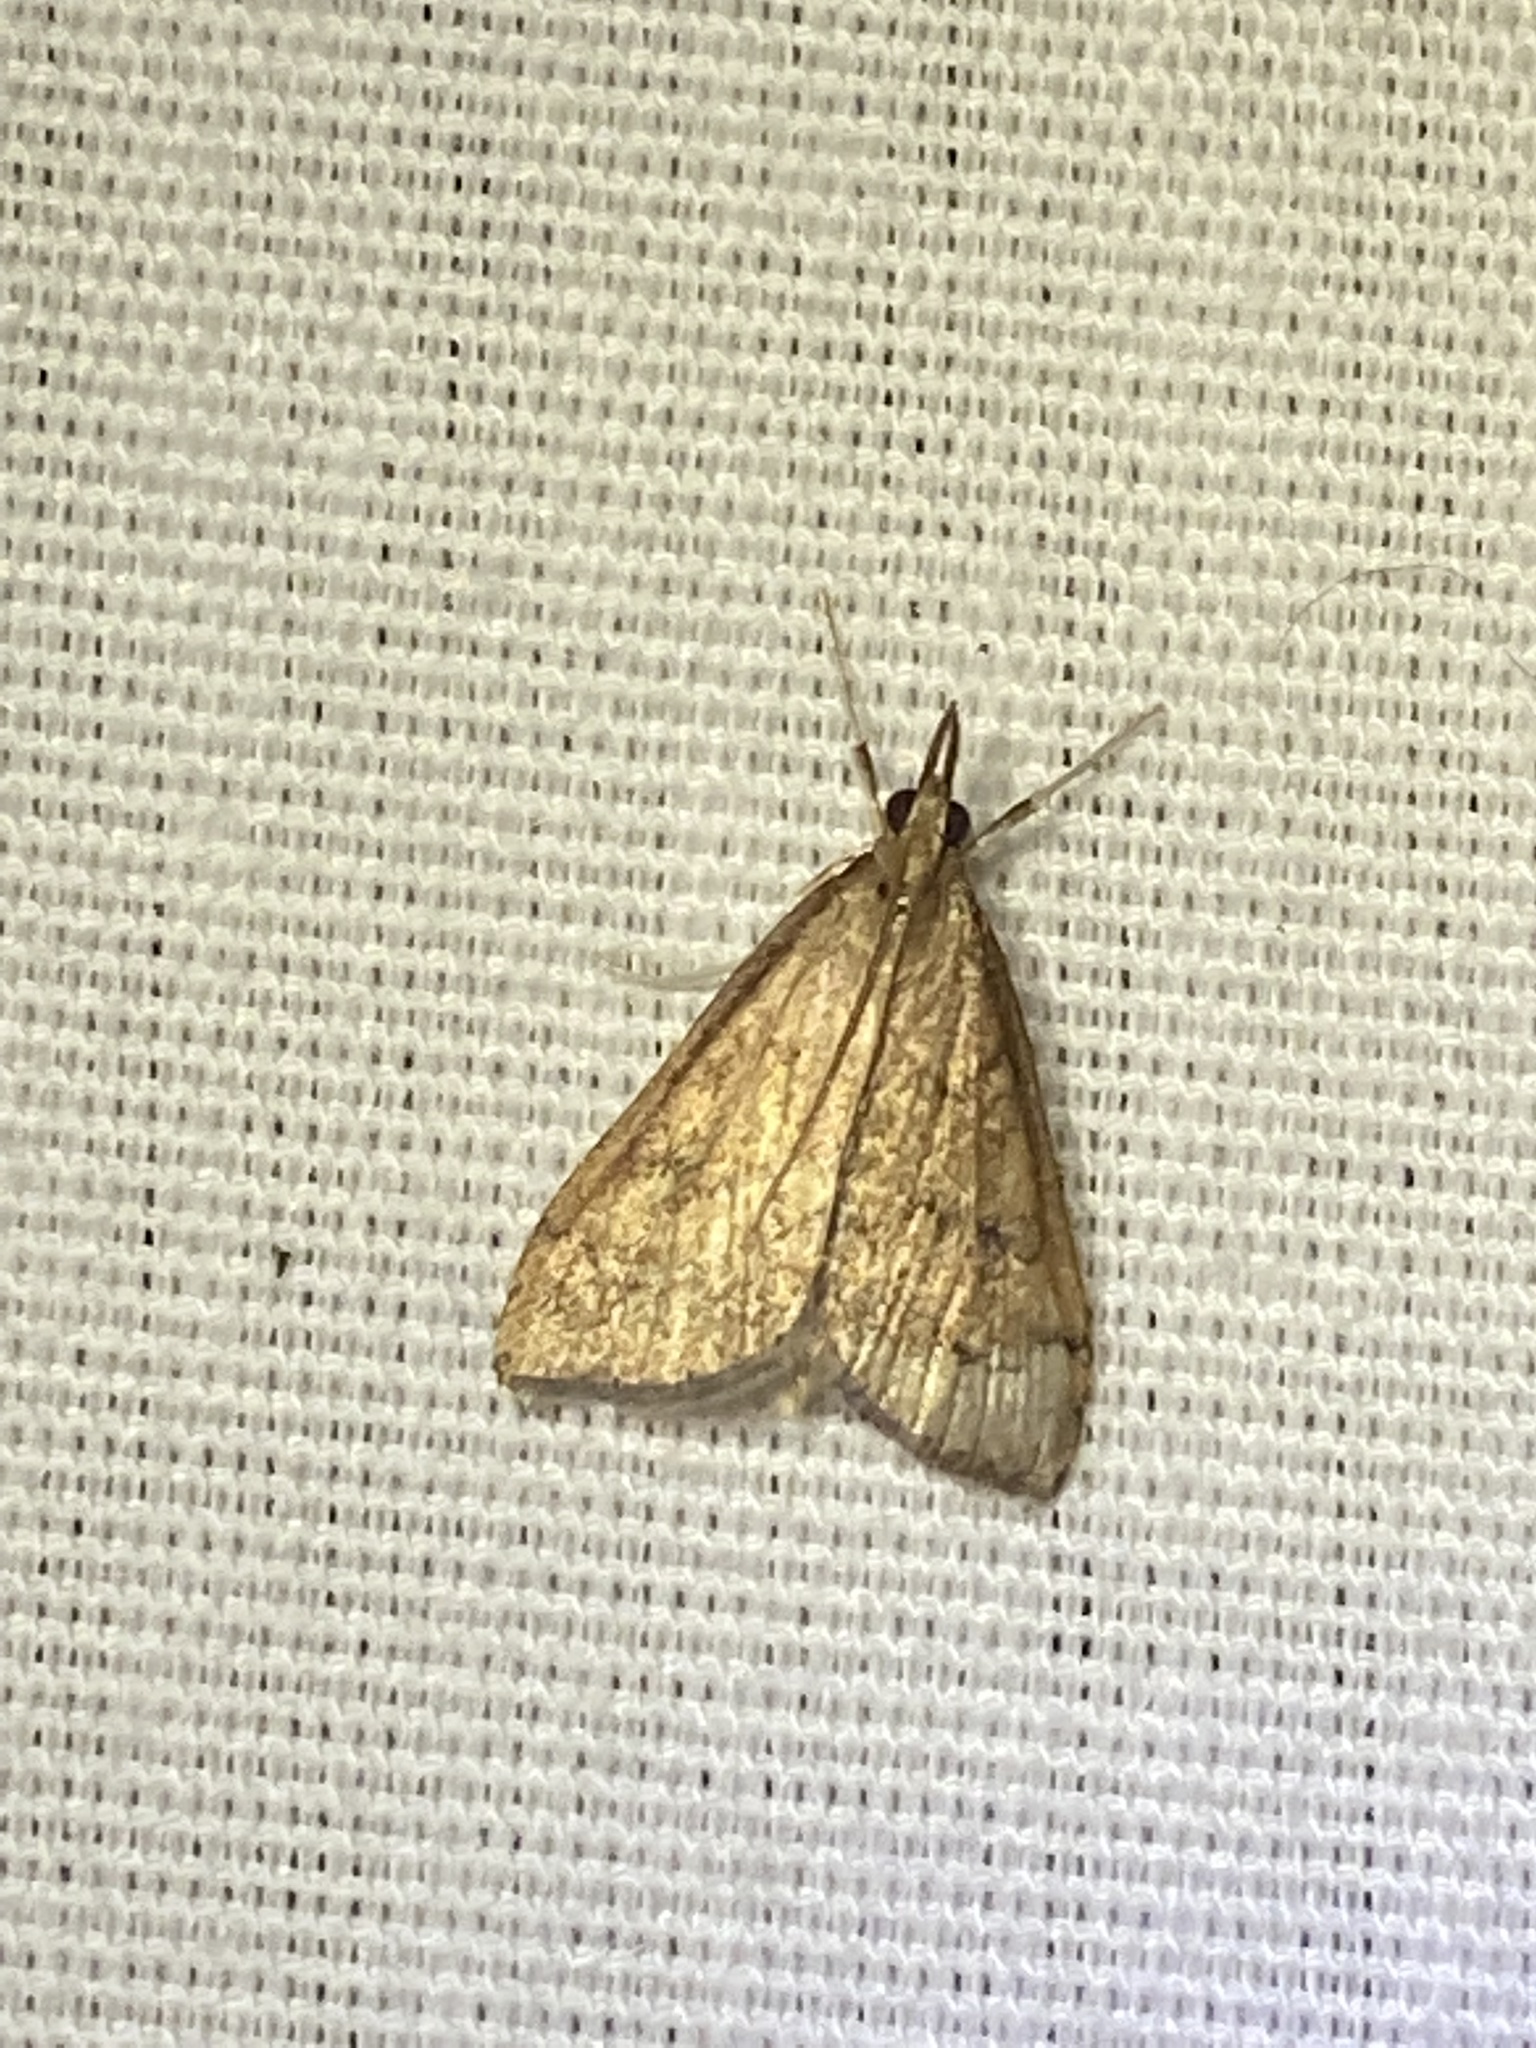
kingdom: Animalia
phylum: Arthropoda
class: Insecta
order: Lepidoptera
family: Crambidae
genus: Udea
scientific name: Udea rubigalis
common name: Celery leaftier moth
